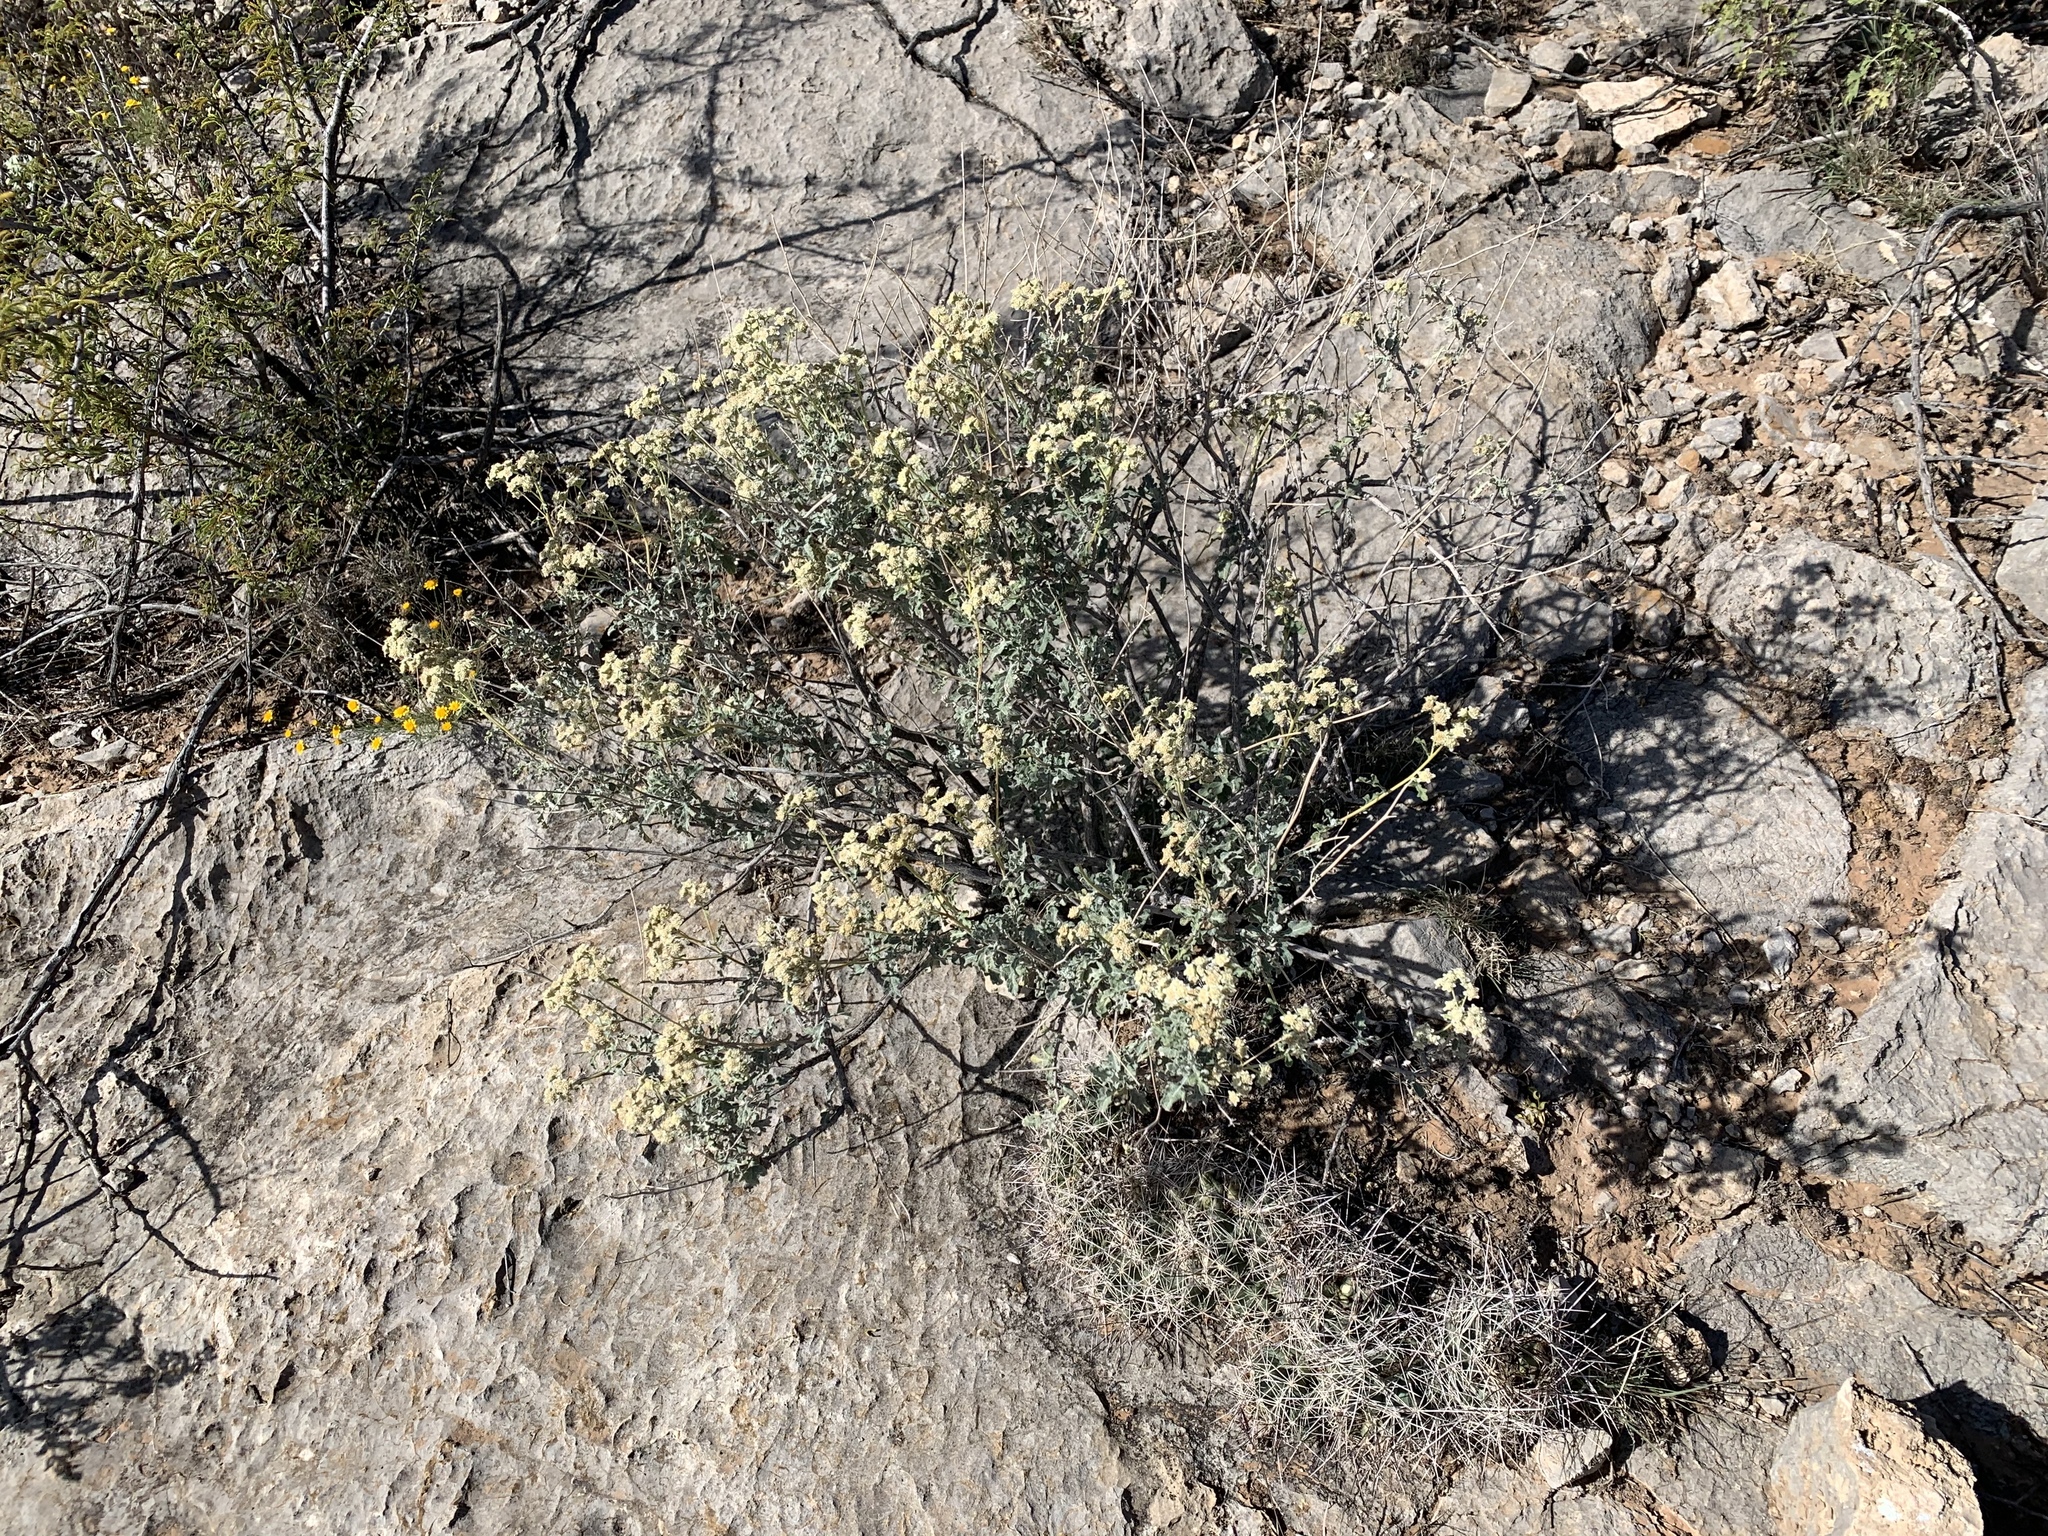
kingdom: Plantae
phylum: Tracheophyta
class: Magnoliopsida
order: Asterales
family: Asteraceae
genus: Parthenium
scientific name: Parthenium incanum
